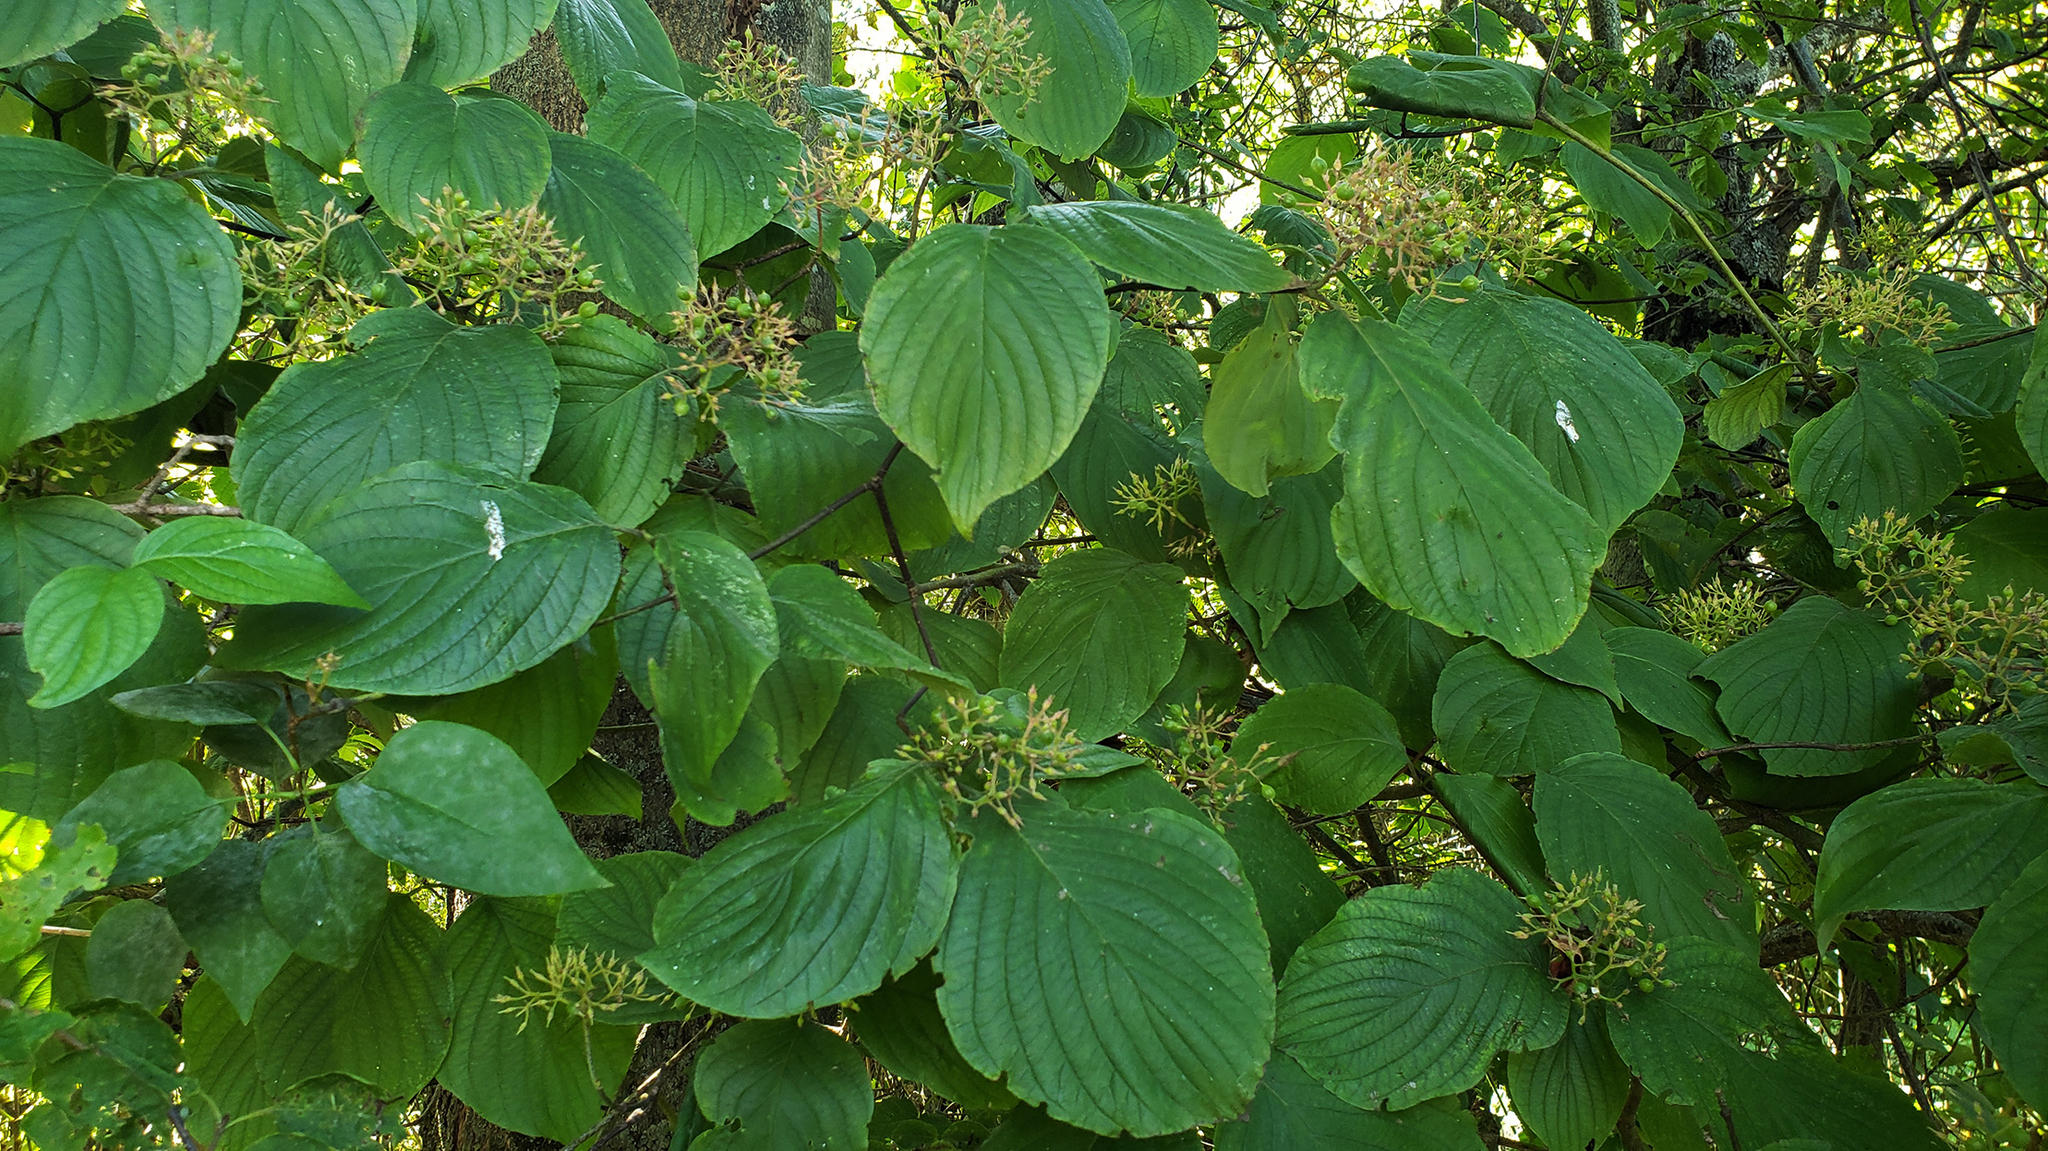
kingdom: Plantae
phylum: Tracheophyta
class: Magnoliopsida
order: Cornales
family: Cornaceae
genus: Cornus
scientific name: Cornus rugosa
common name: Round-leaf dogwood
